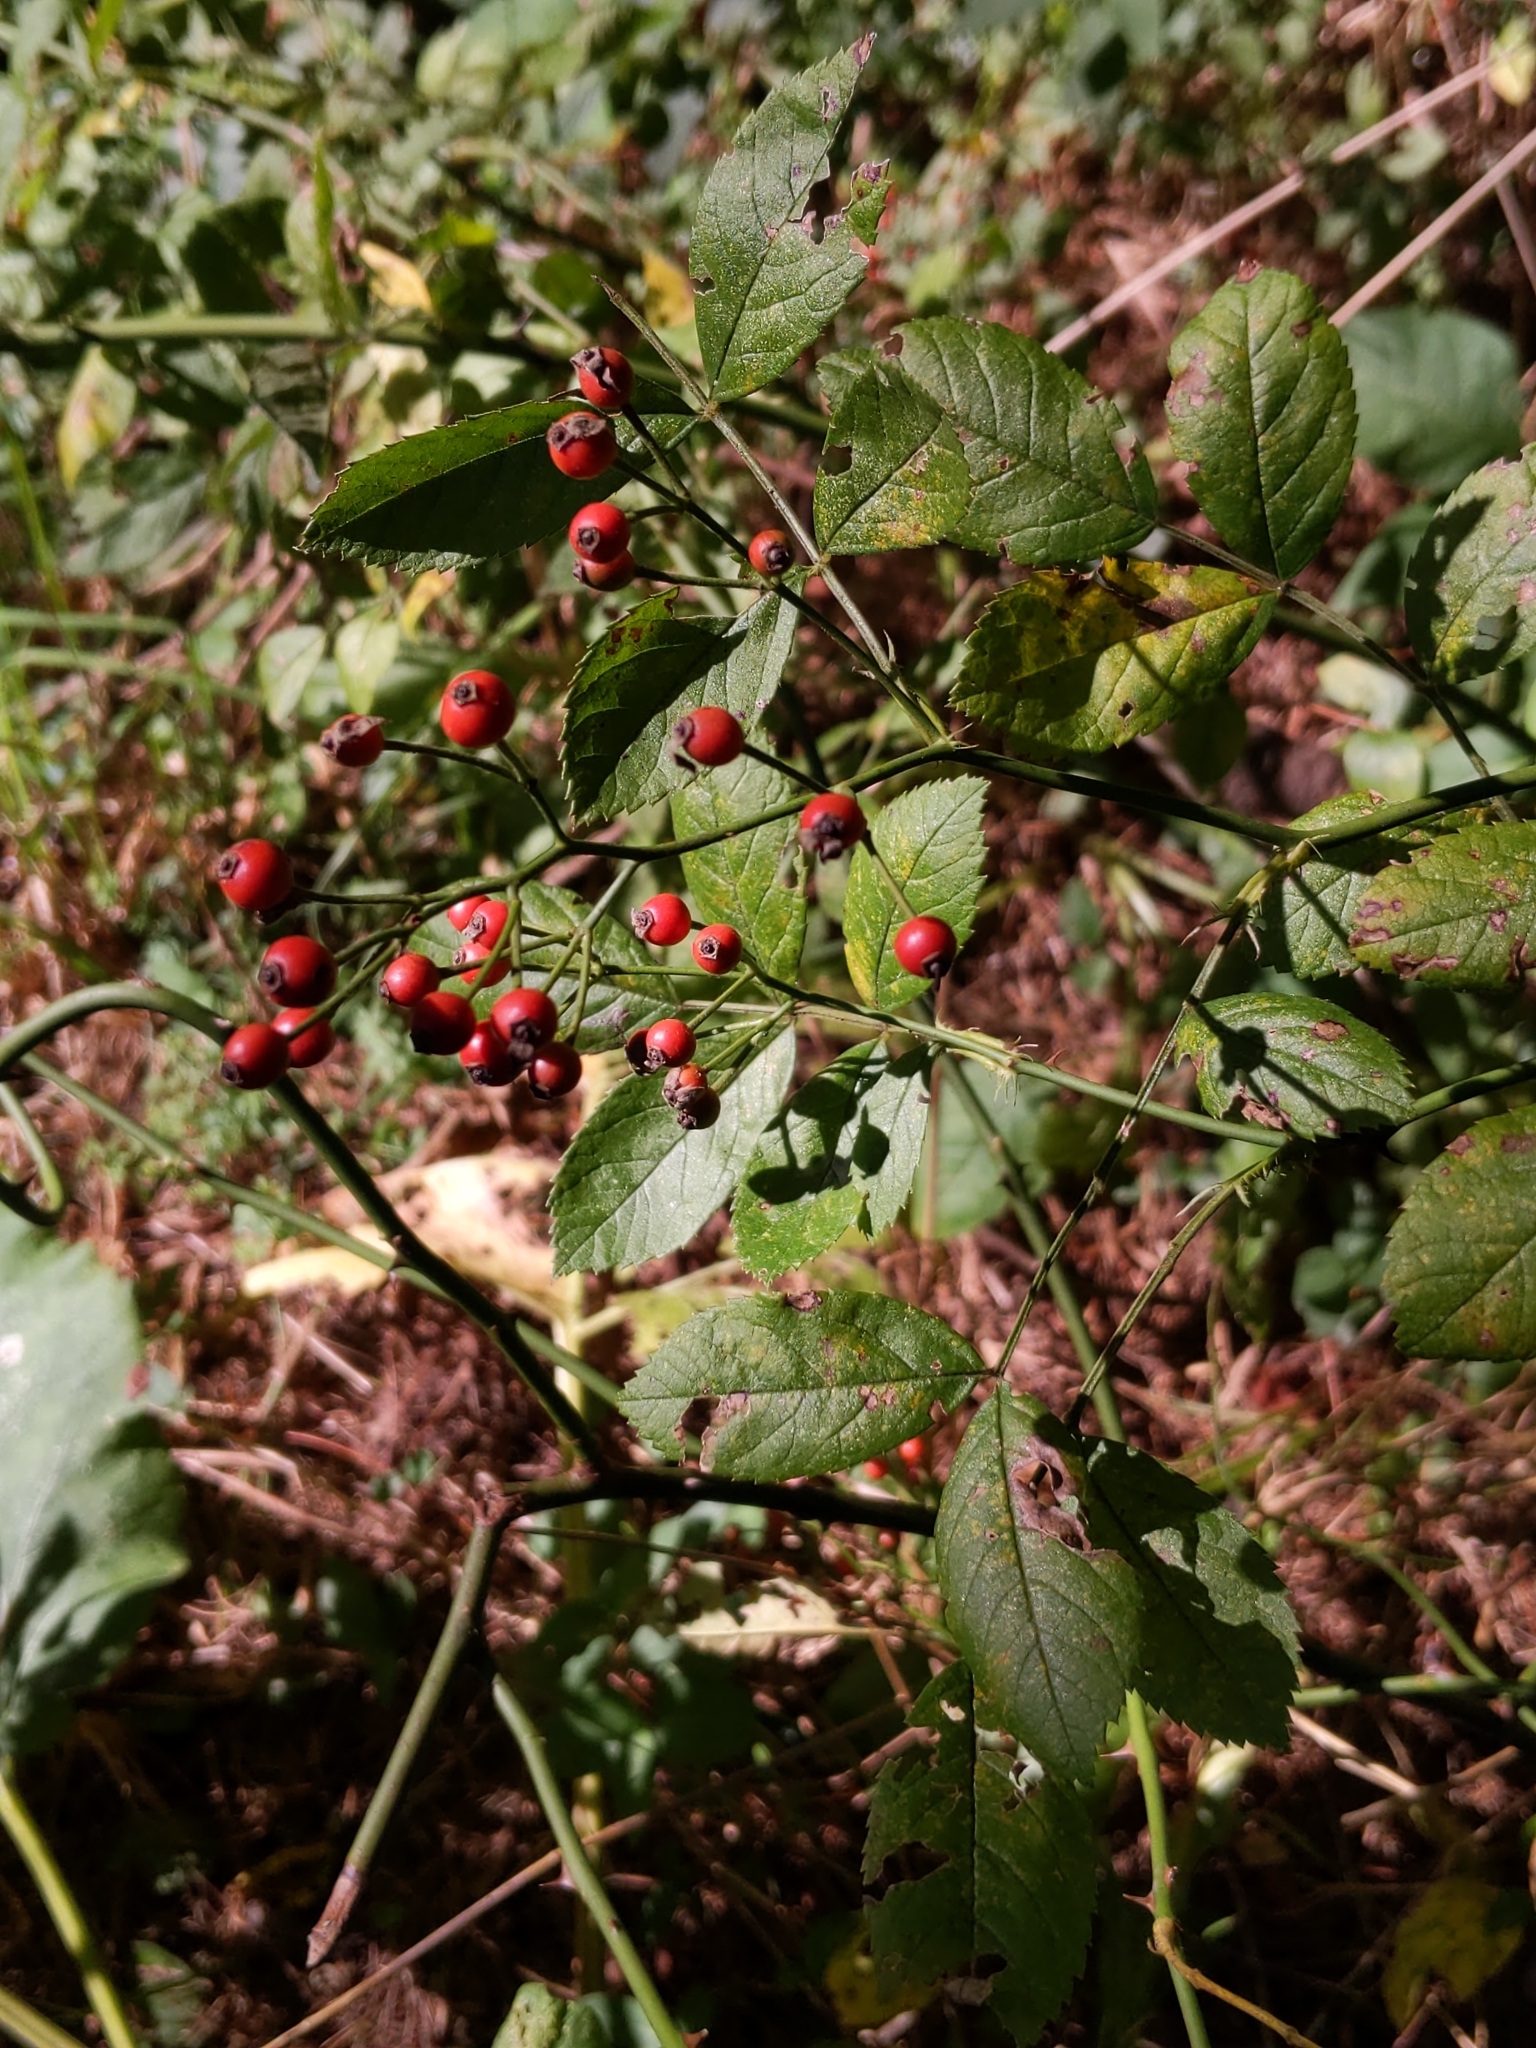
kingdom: Plantae
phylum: Tracheophyta
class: Magnoliopsida
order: Rosales
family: Rosaceae
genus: Rosa
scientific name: Rosa multiflora
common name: Multiflora rose
